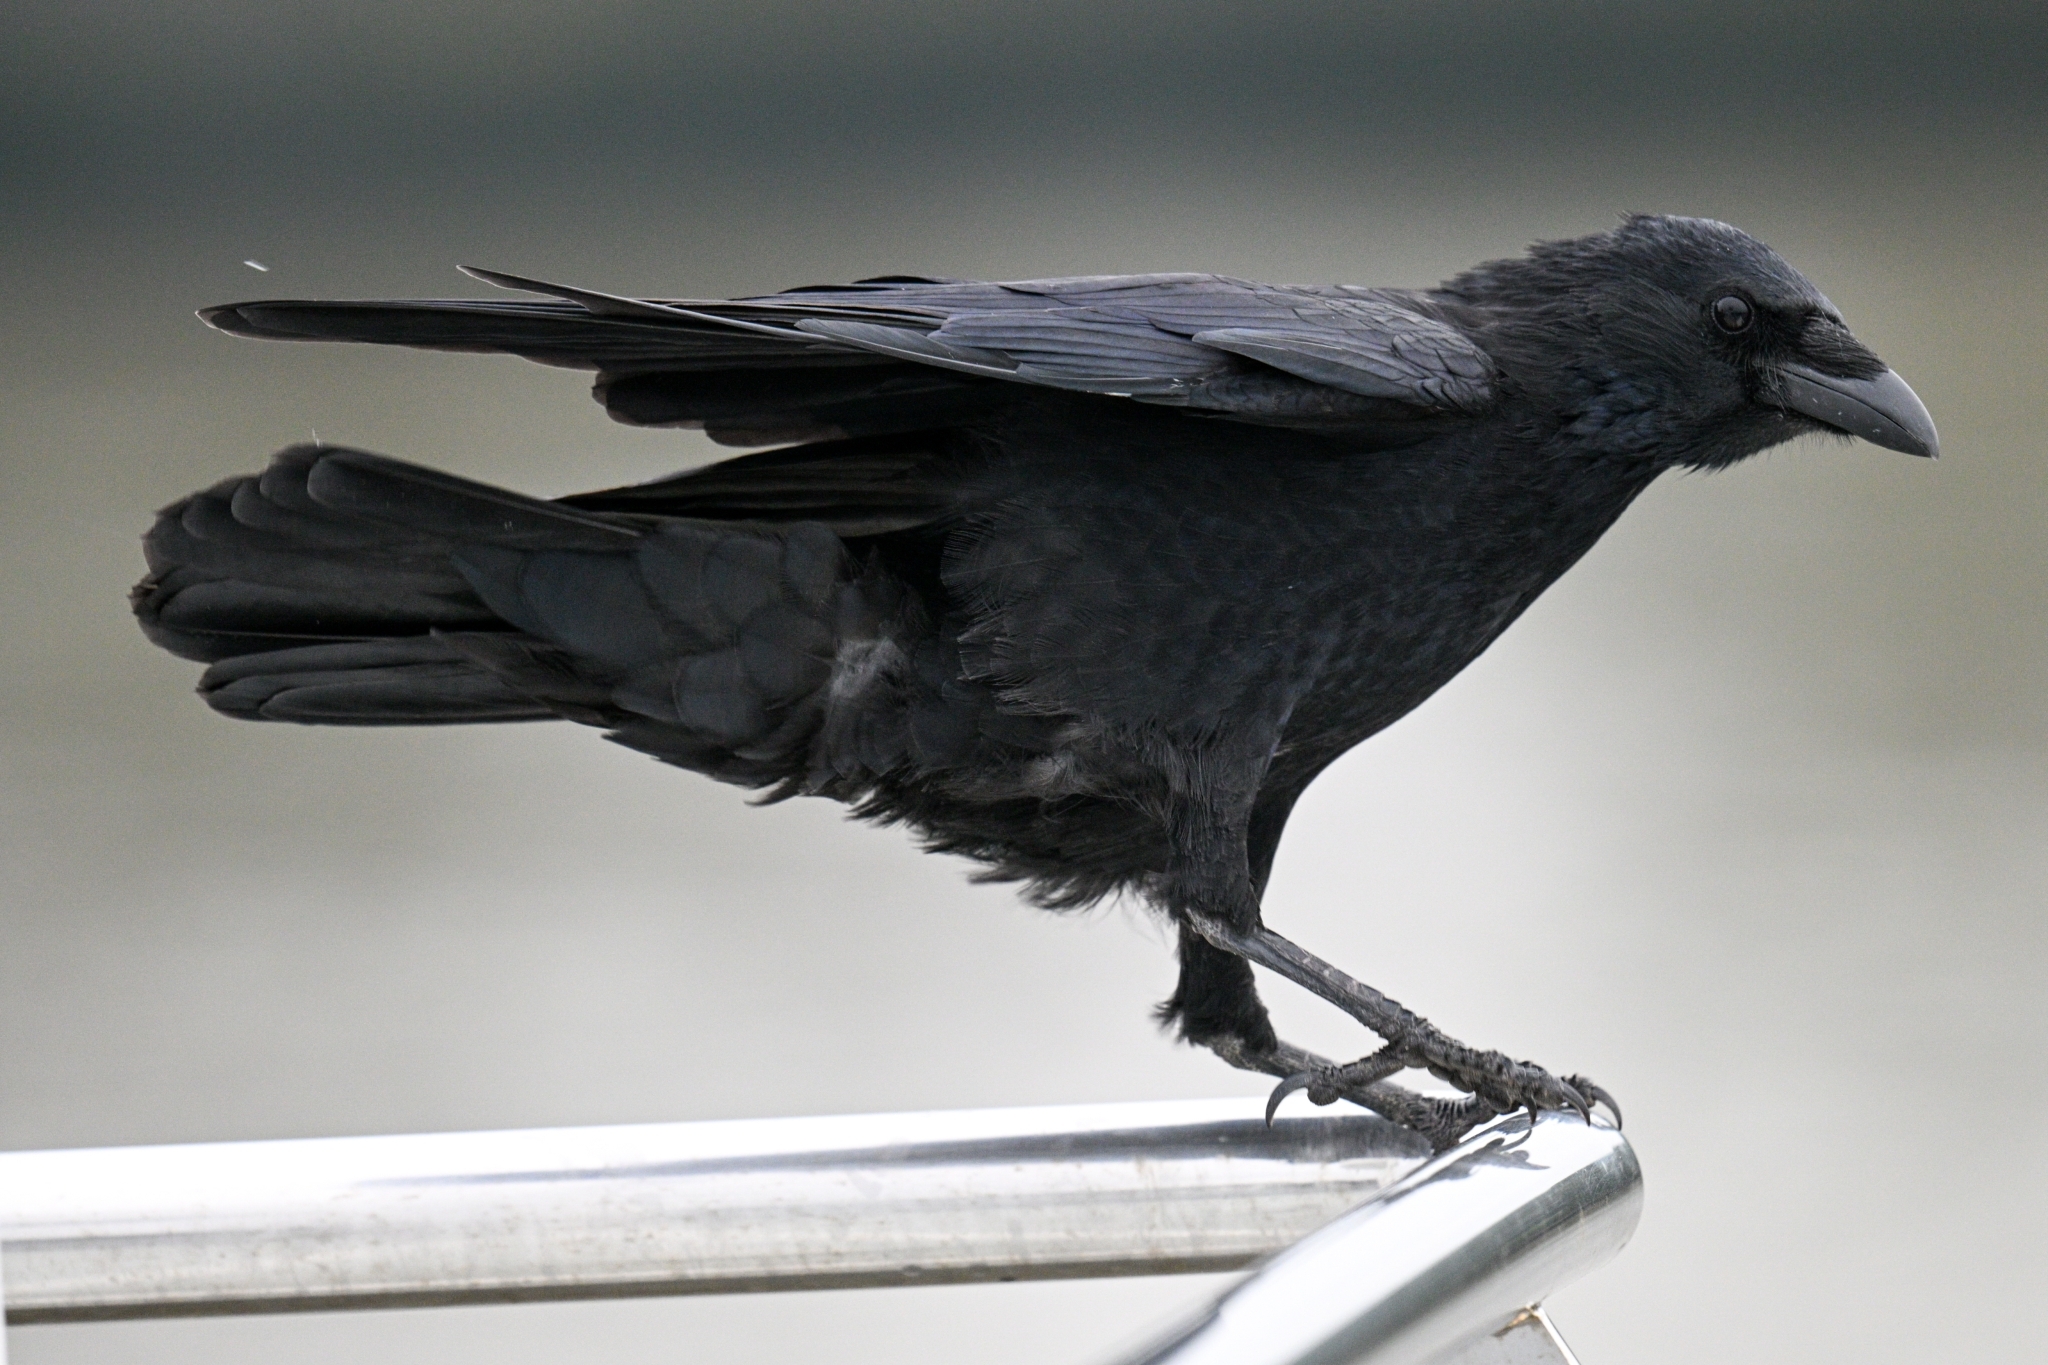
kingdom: Animalia
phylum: Chordata
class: Aves
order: Passeriformes
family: Corvidae
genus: Corvus
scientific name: Corvus corone
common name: Carrion crow
